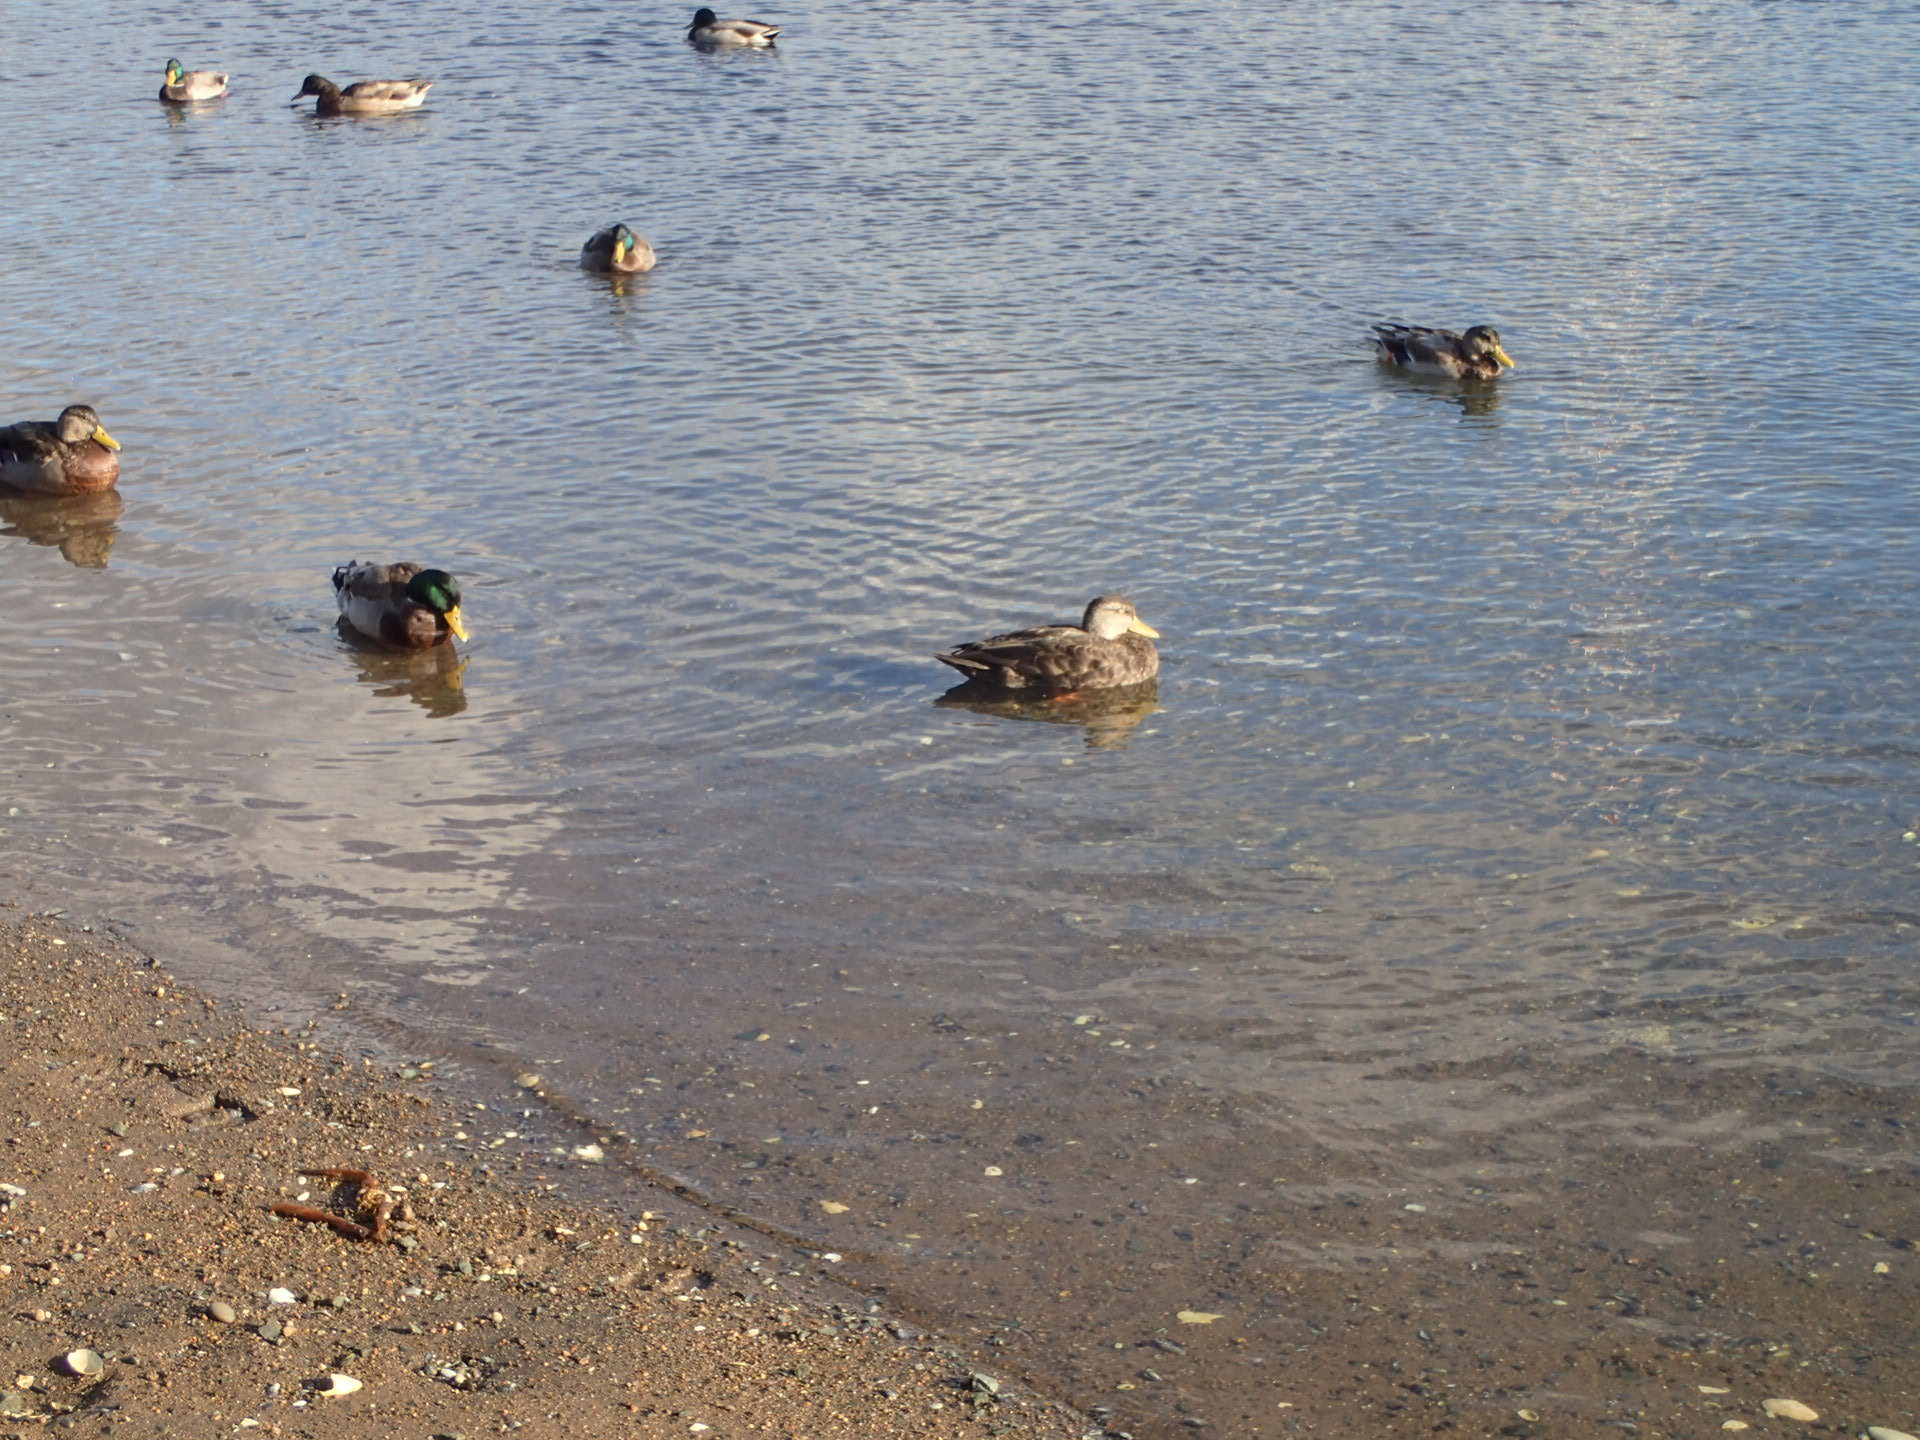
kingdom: Animalia
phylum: Chordata
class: Aves
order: Anseriformes
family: Anatidae
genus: Anas
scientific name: Anas platyrhynchos
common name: Mallard
